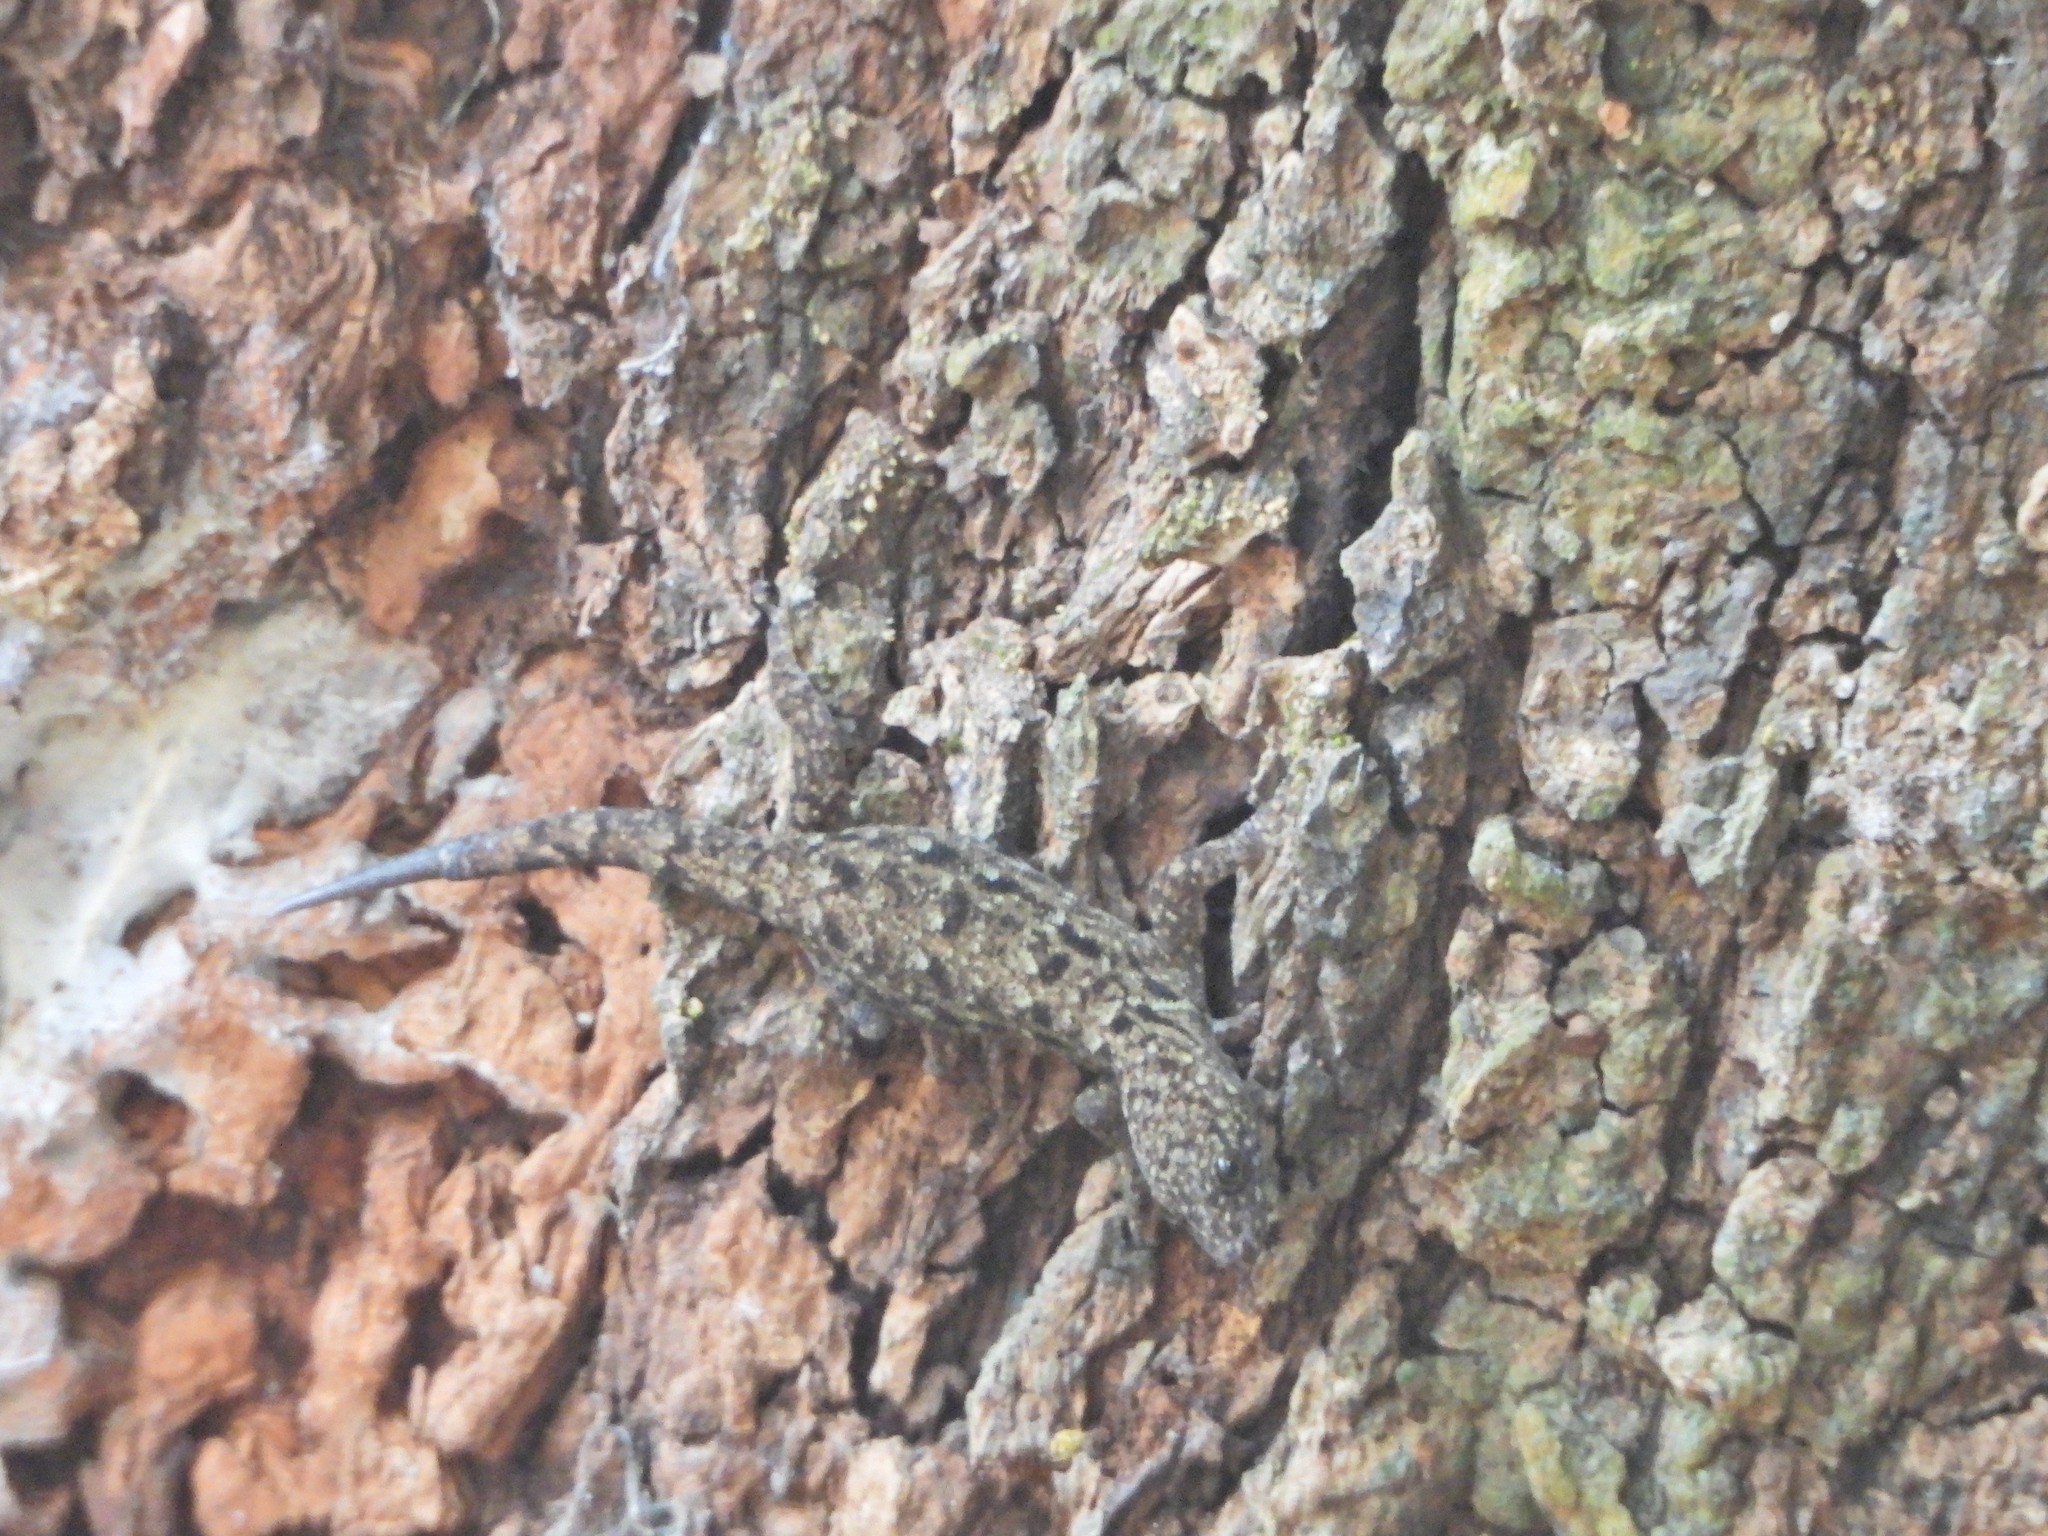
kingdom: Animalia
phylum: Chordata
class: Squamata
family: Sphaerodactylidae
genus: Gonatodes
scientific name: Gonatodes albogularis
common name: Yellow-headed gecko
